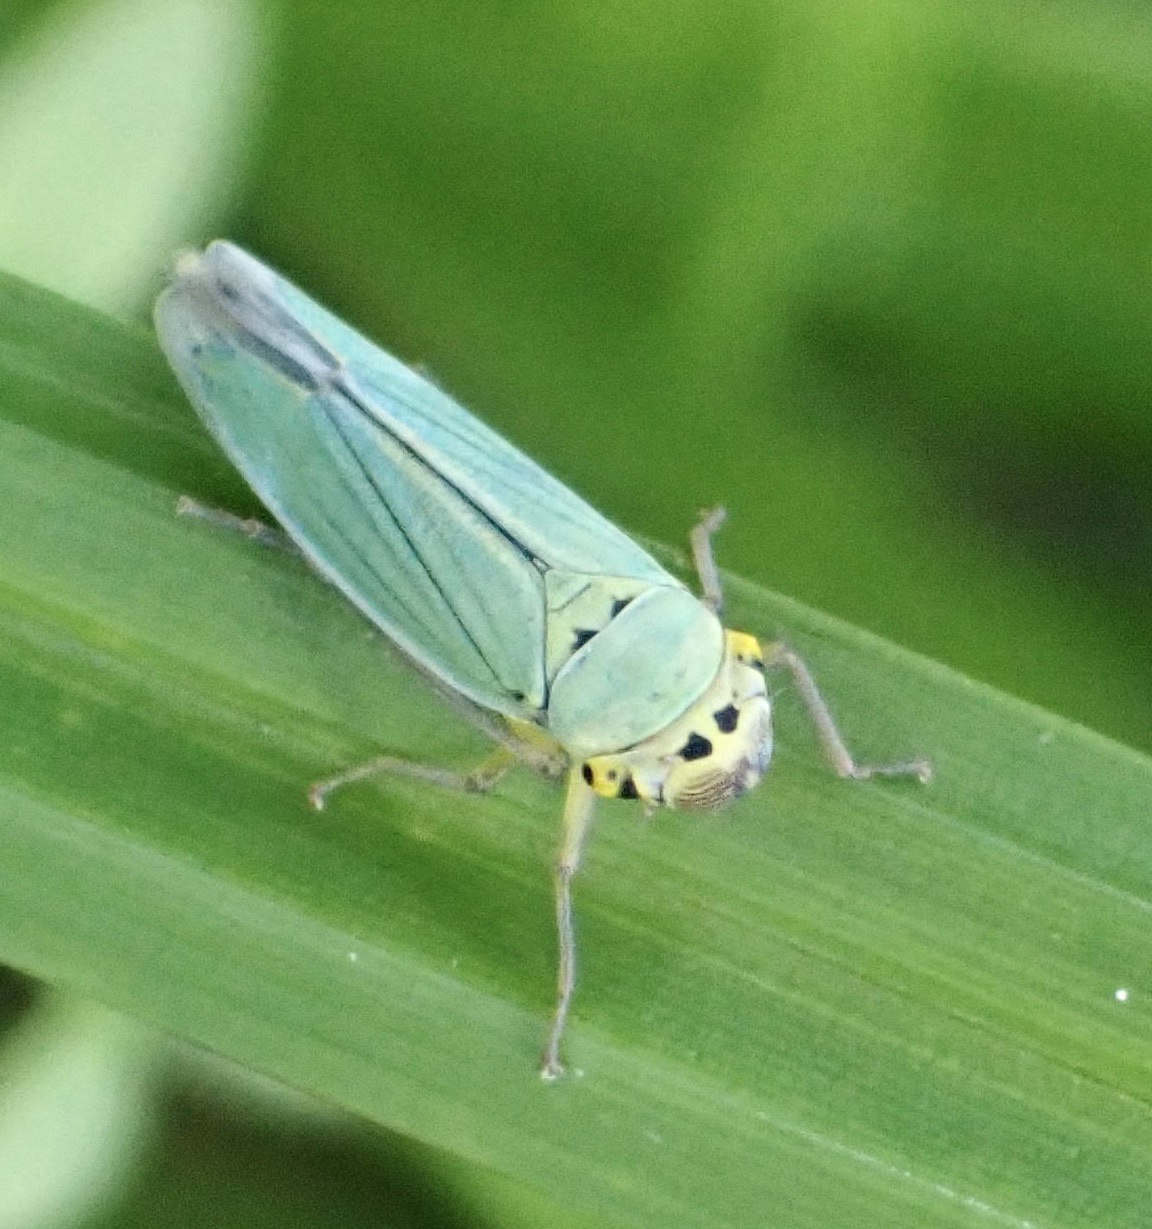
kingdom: Animalia
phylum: Arthropoda
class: Insecta
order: Hemiptera
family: Cicadellidae
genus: Cicadella
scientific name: Cicadella viridis
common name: Leafhopper
